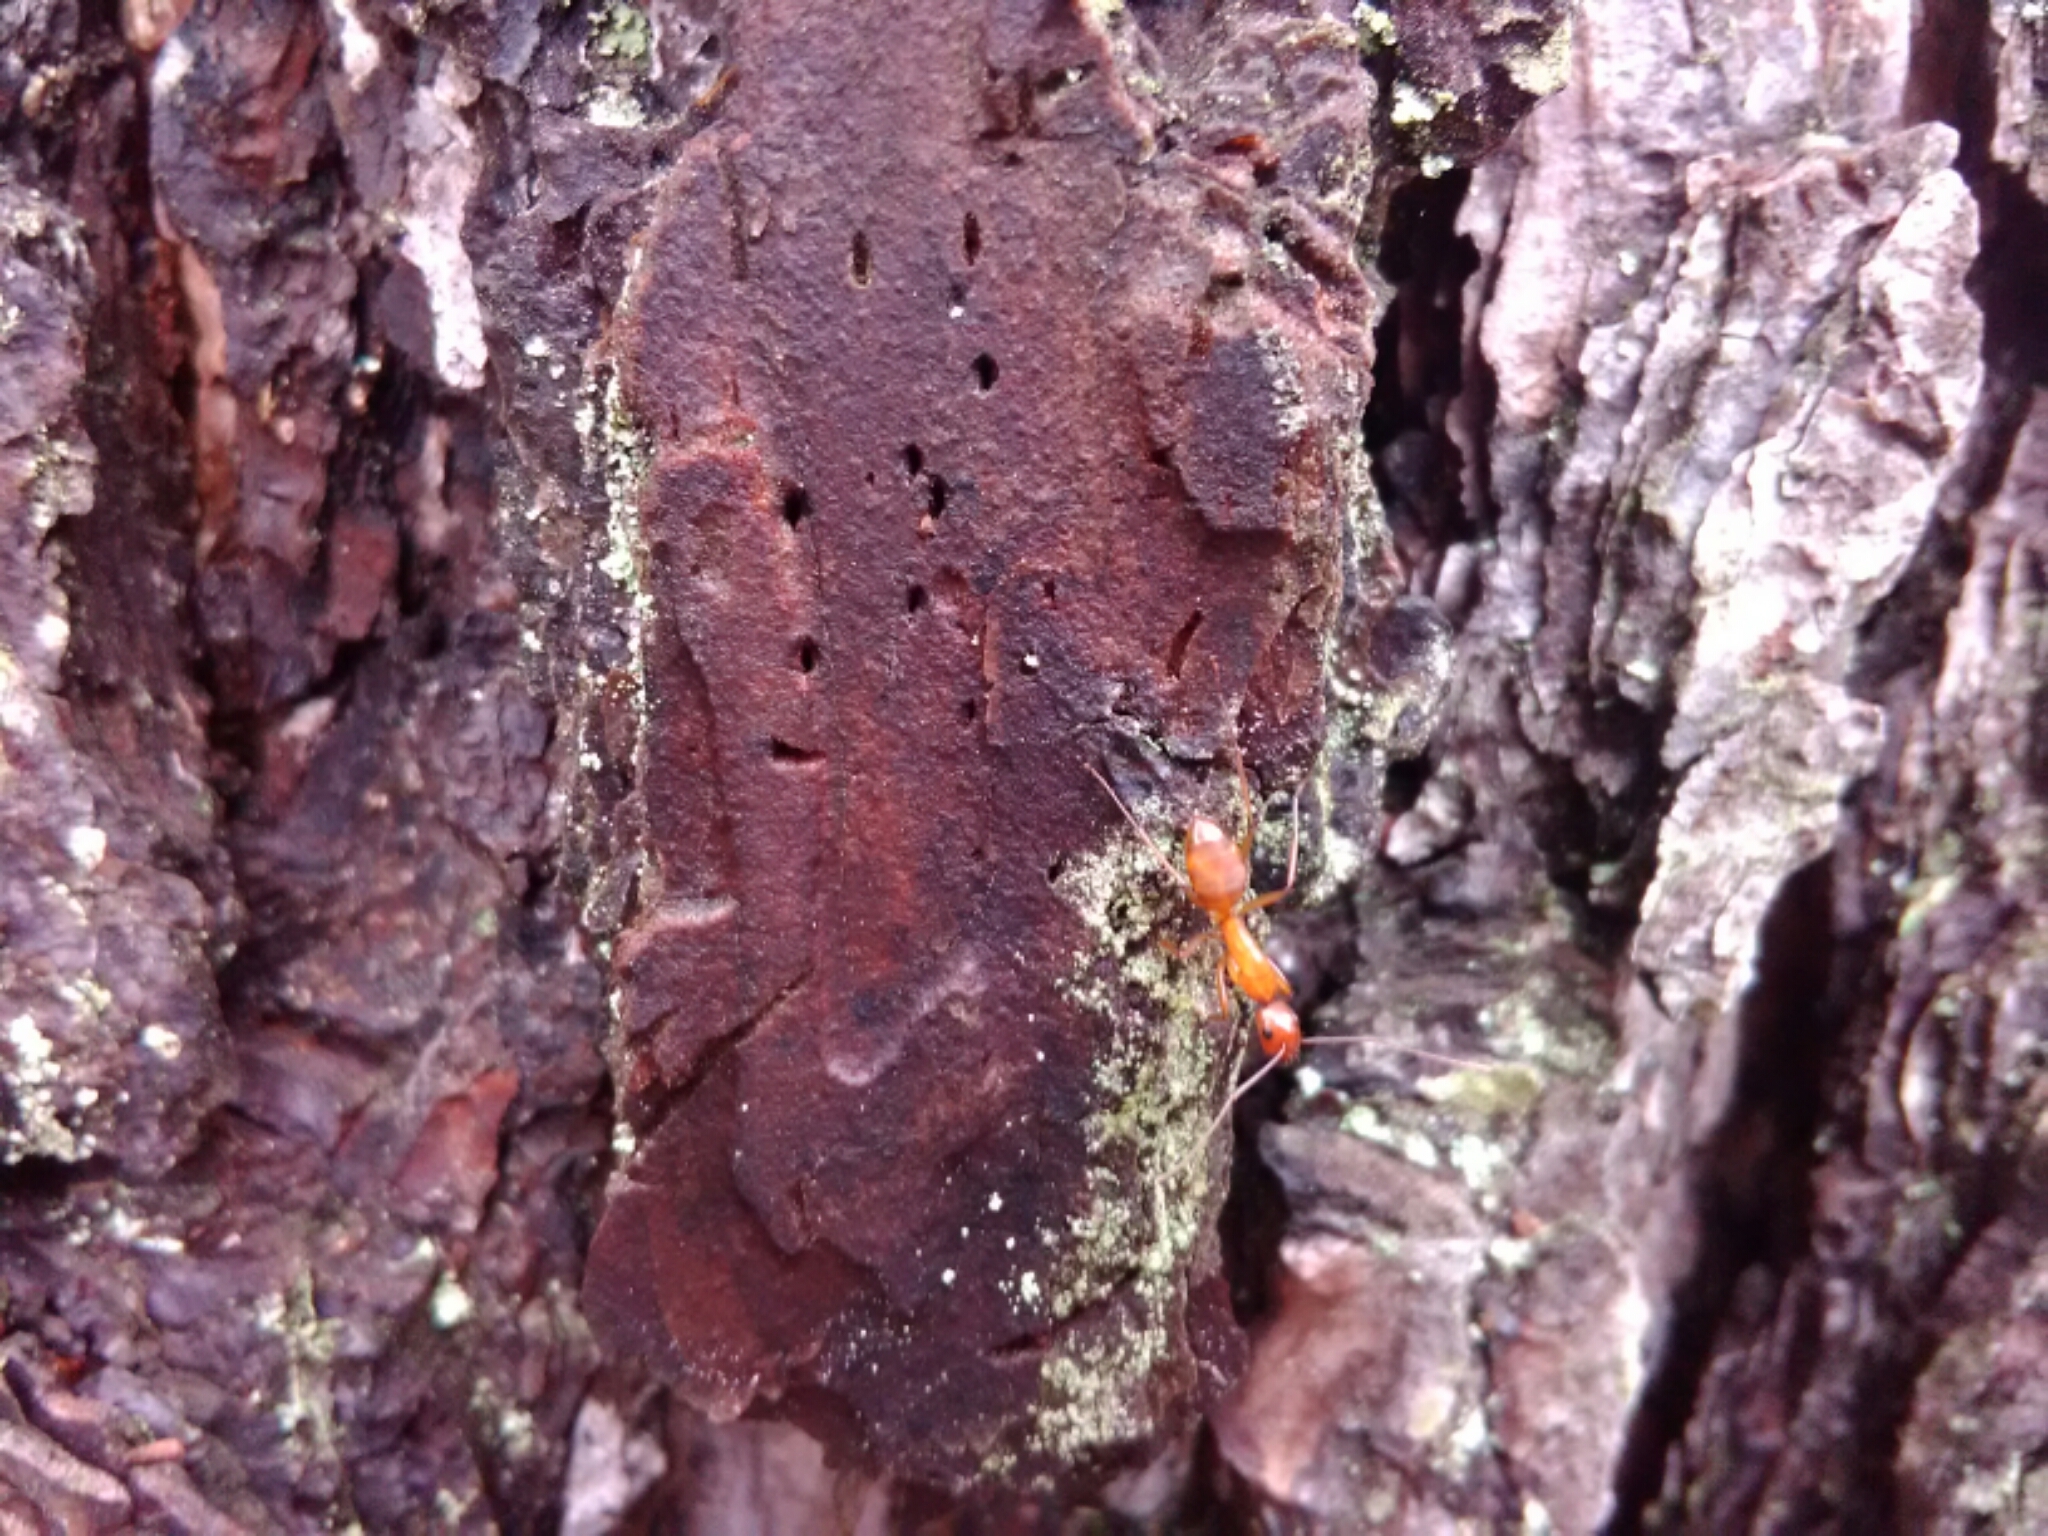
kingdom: Animalia
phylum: Arthropoda
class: Insecta
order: Hymenoptera
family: Formicidae
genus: Camponotus
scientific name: Camponotus castaneus
